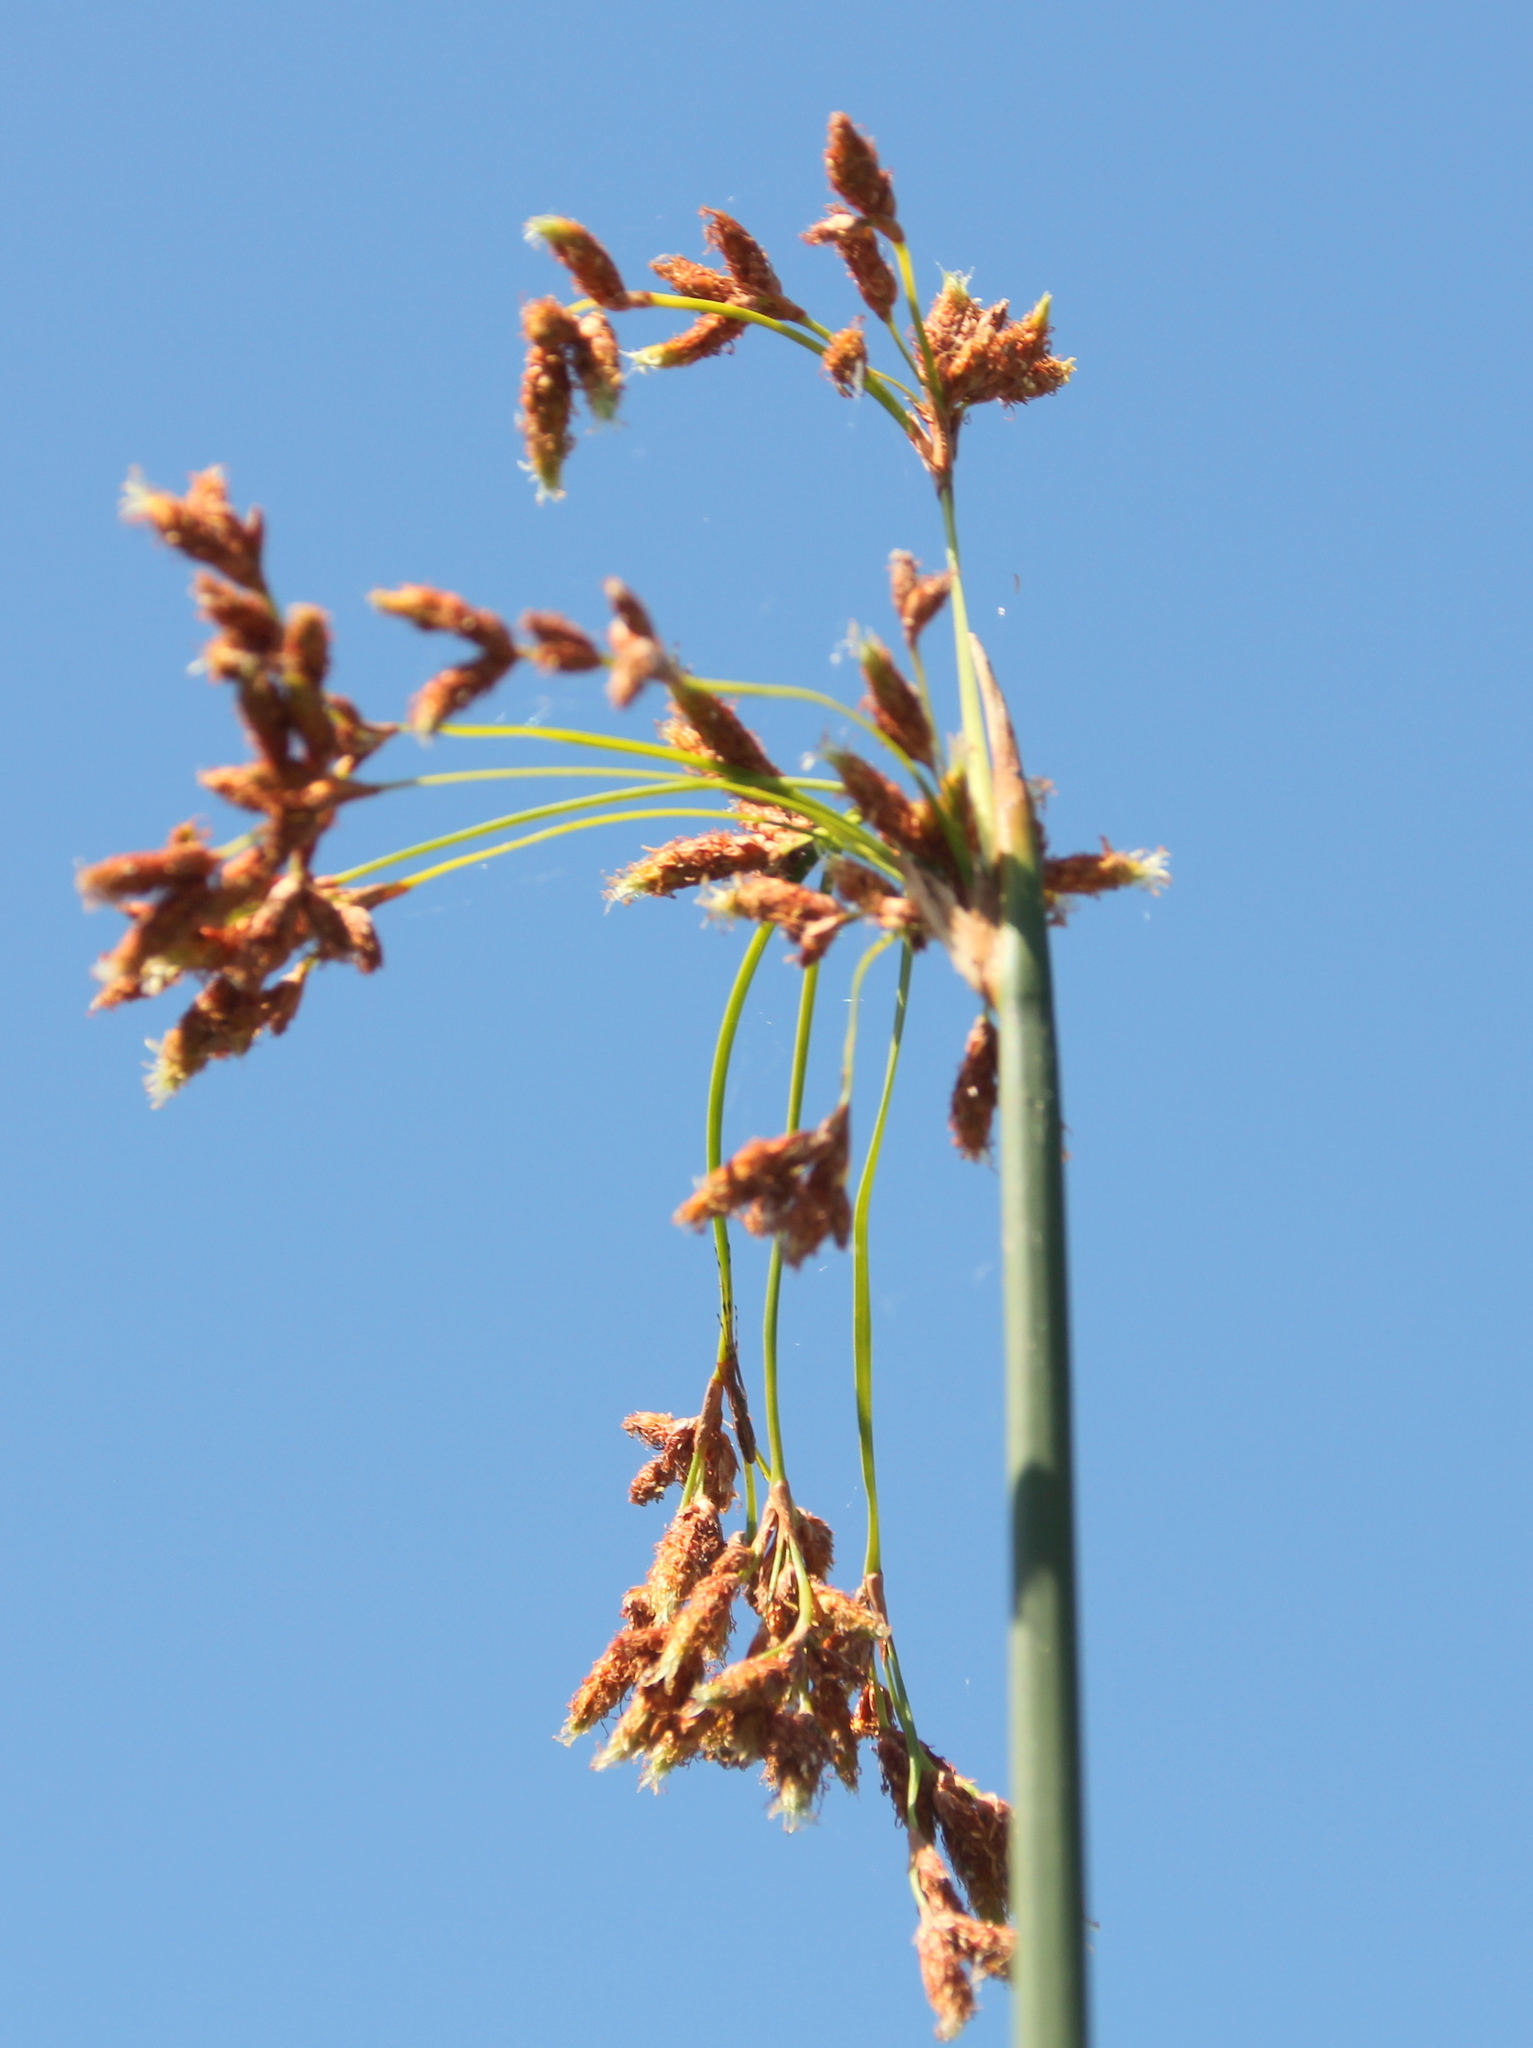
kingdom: Plantae
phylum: Tracheophyta
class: Liliopsida
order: Poales
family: Cyperaceae
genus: Schoenoplectus
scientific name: Schoenoplectus californicus
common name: California bulrush
